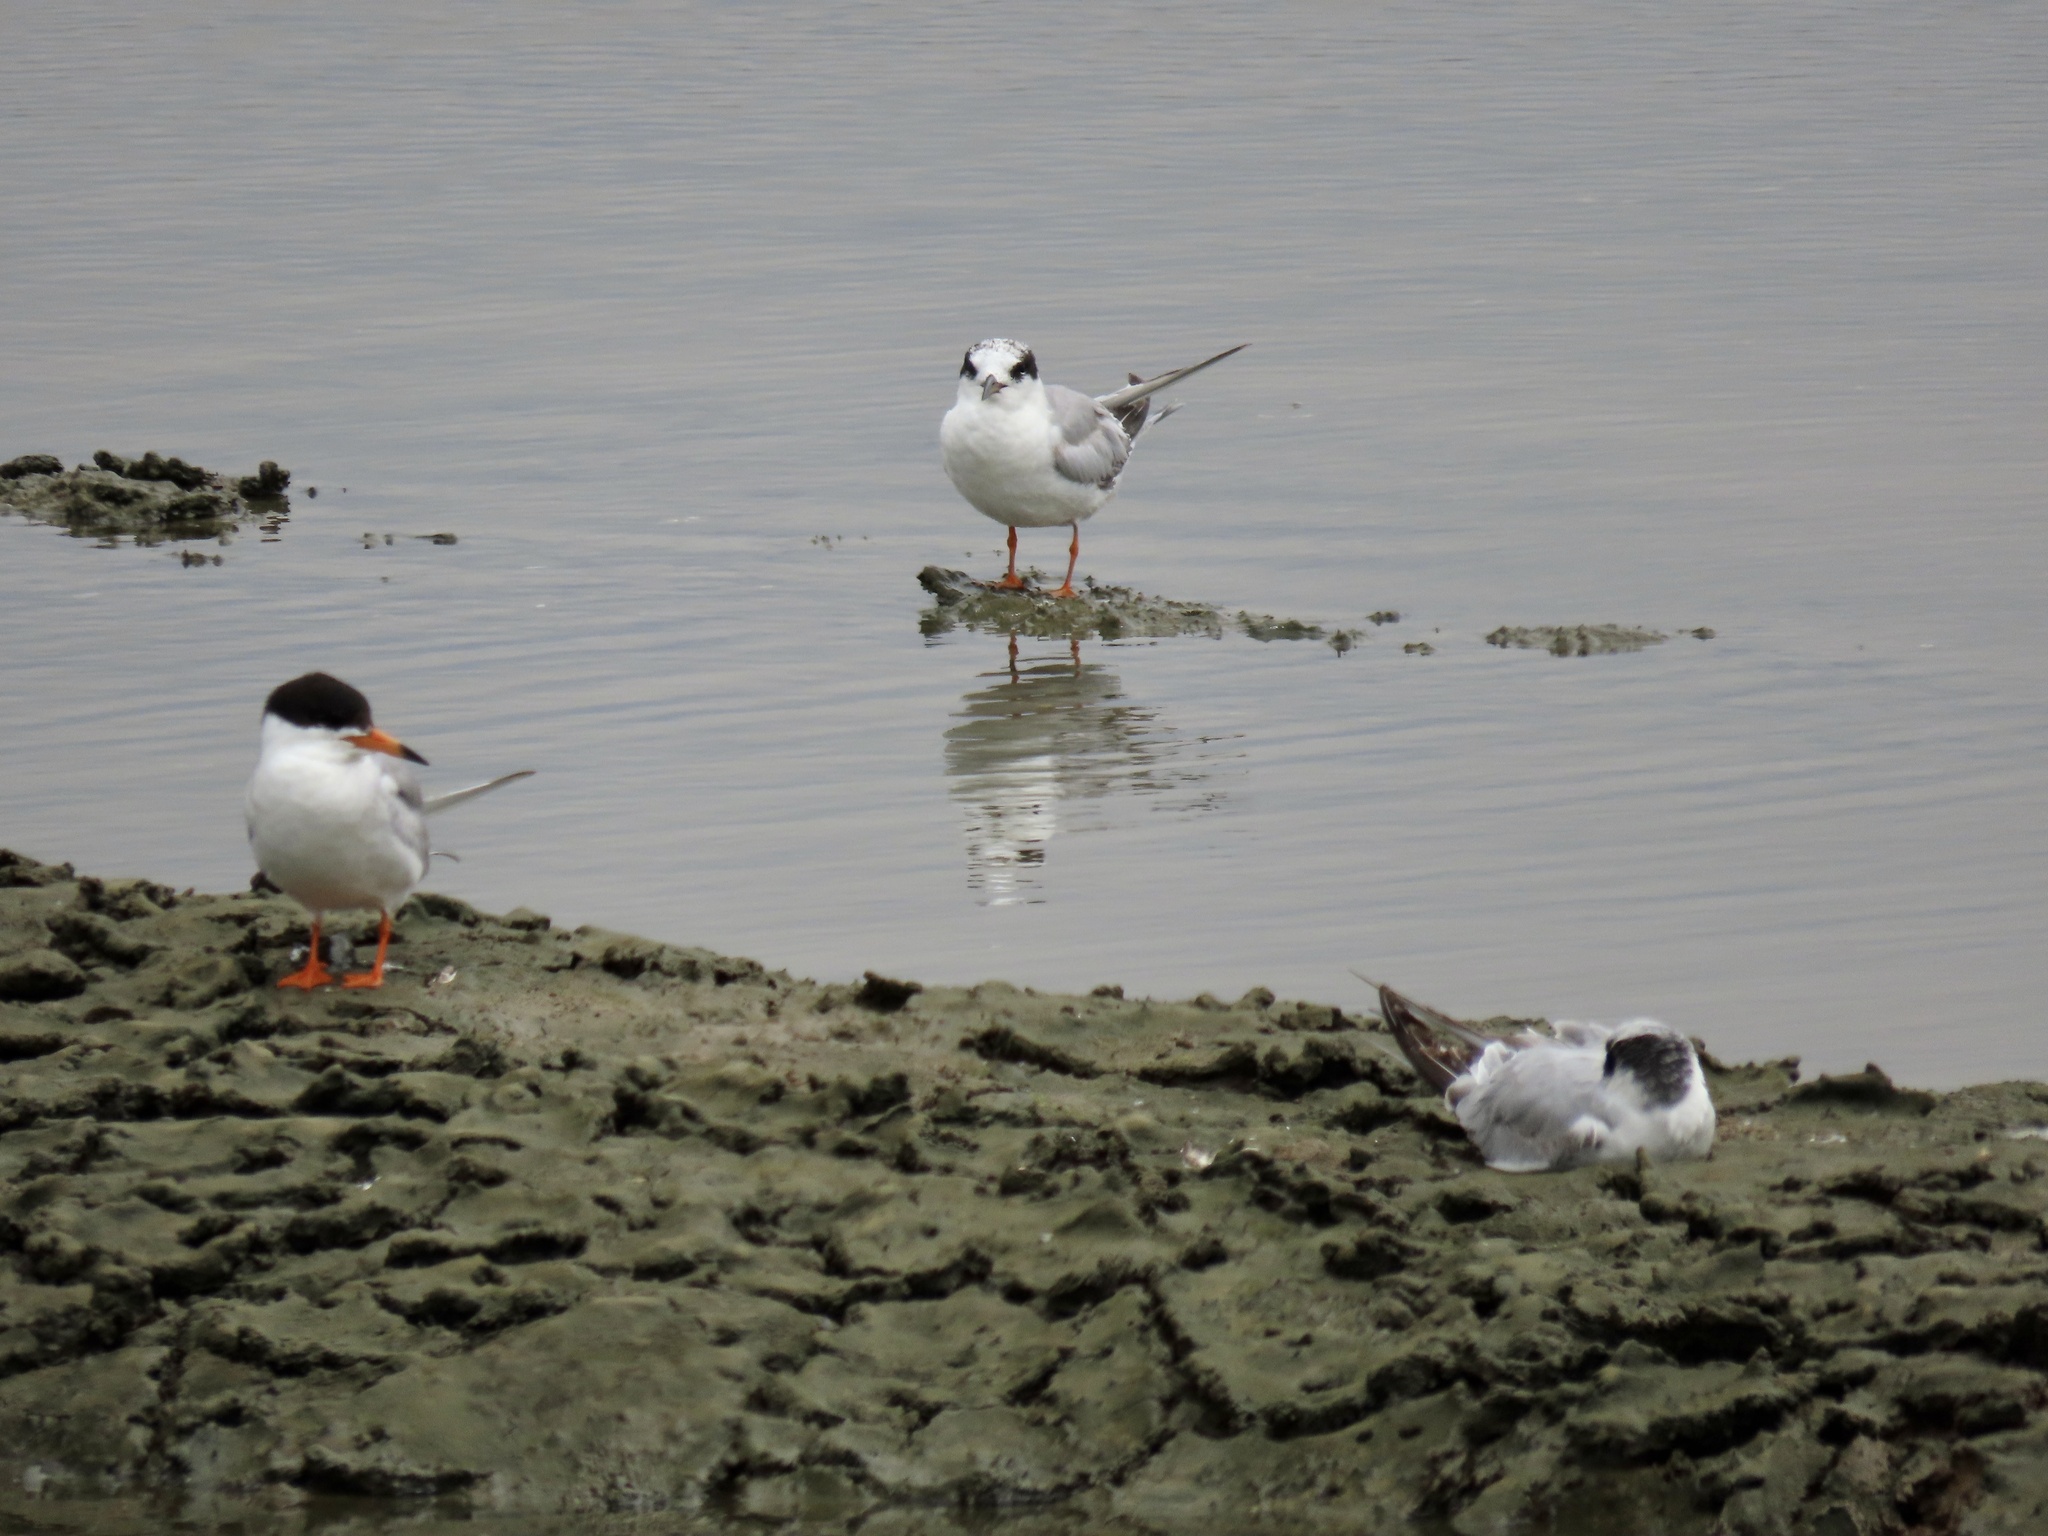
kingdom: Animalia
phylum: Chordata
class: Aves
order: Charadriiformes
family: Laridae
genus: Sterna
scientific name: Sterna forsteri
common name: Forster's tern
